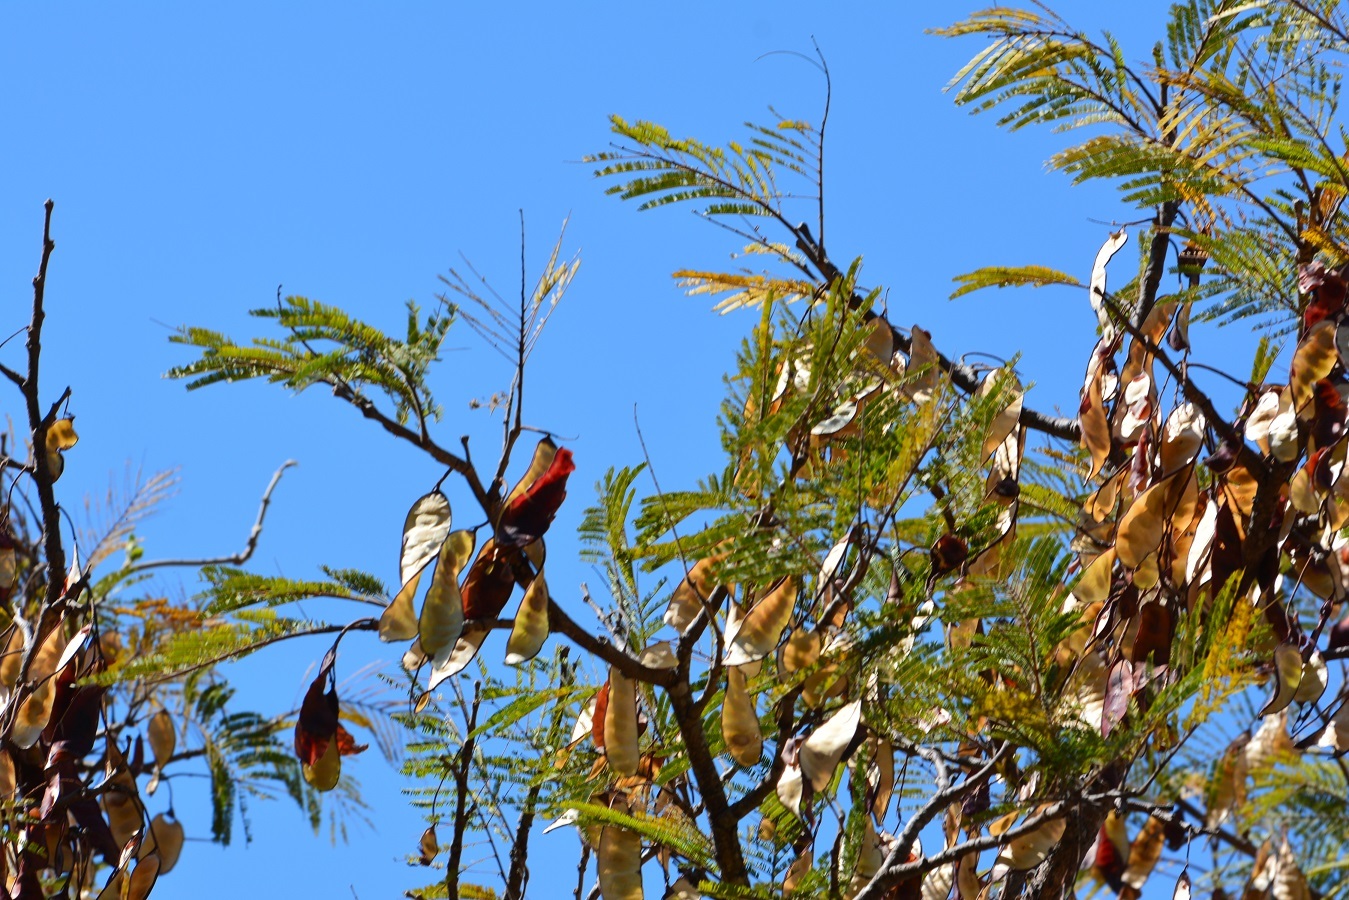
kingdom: Plantae
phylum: Tracheophyta
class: Magnoliopsida
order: Fabales
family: Fabaceae
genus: Lysiloma
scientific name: Lysiloma auritum
